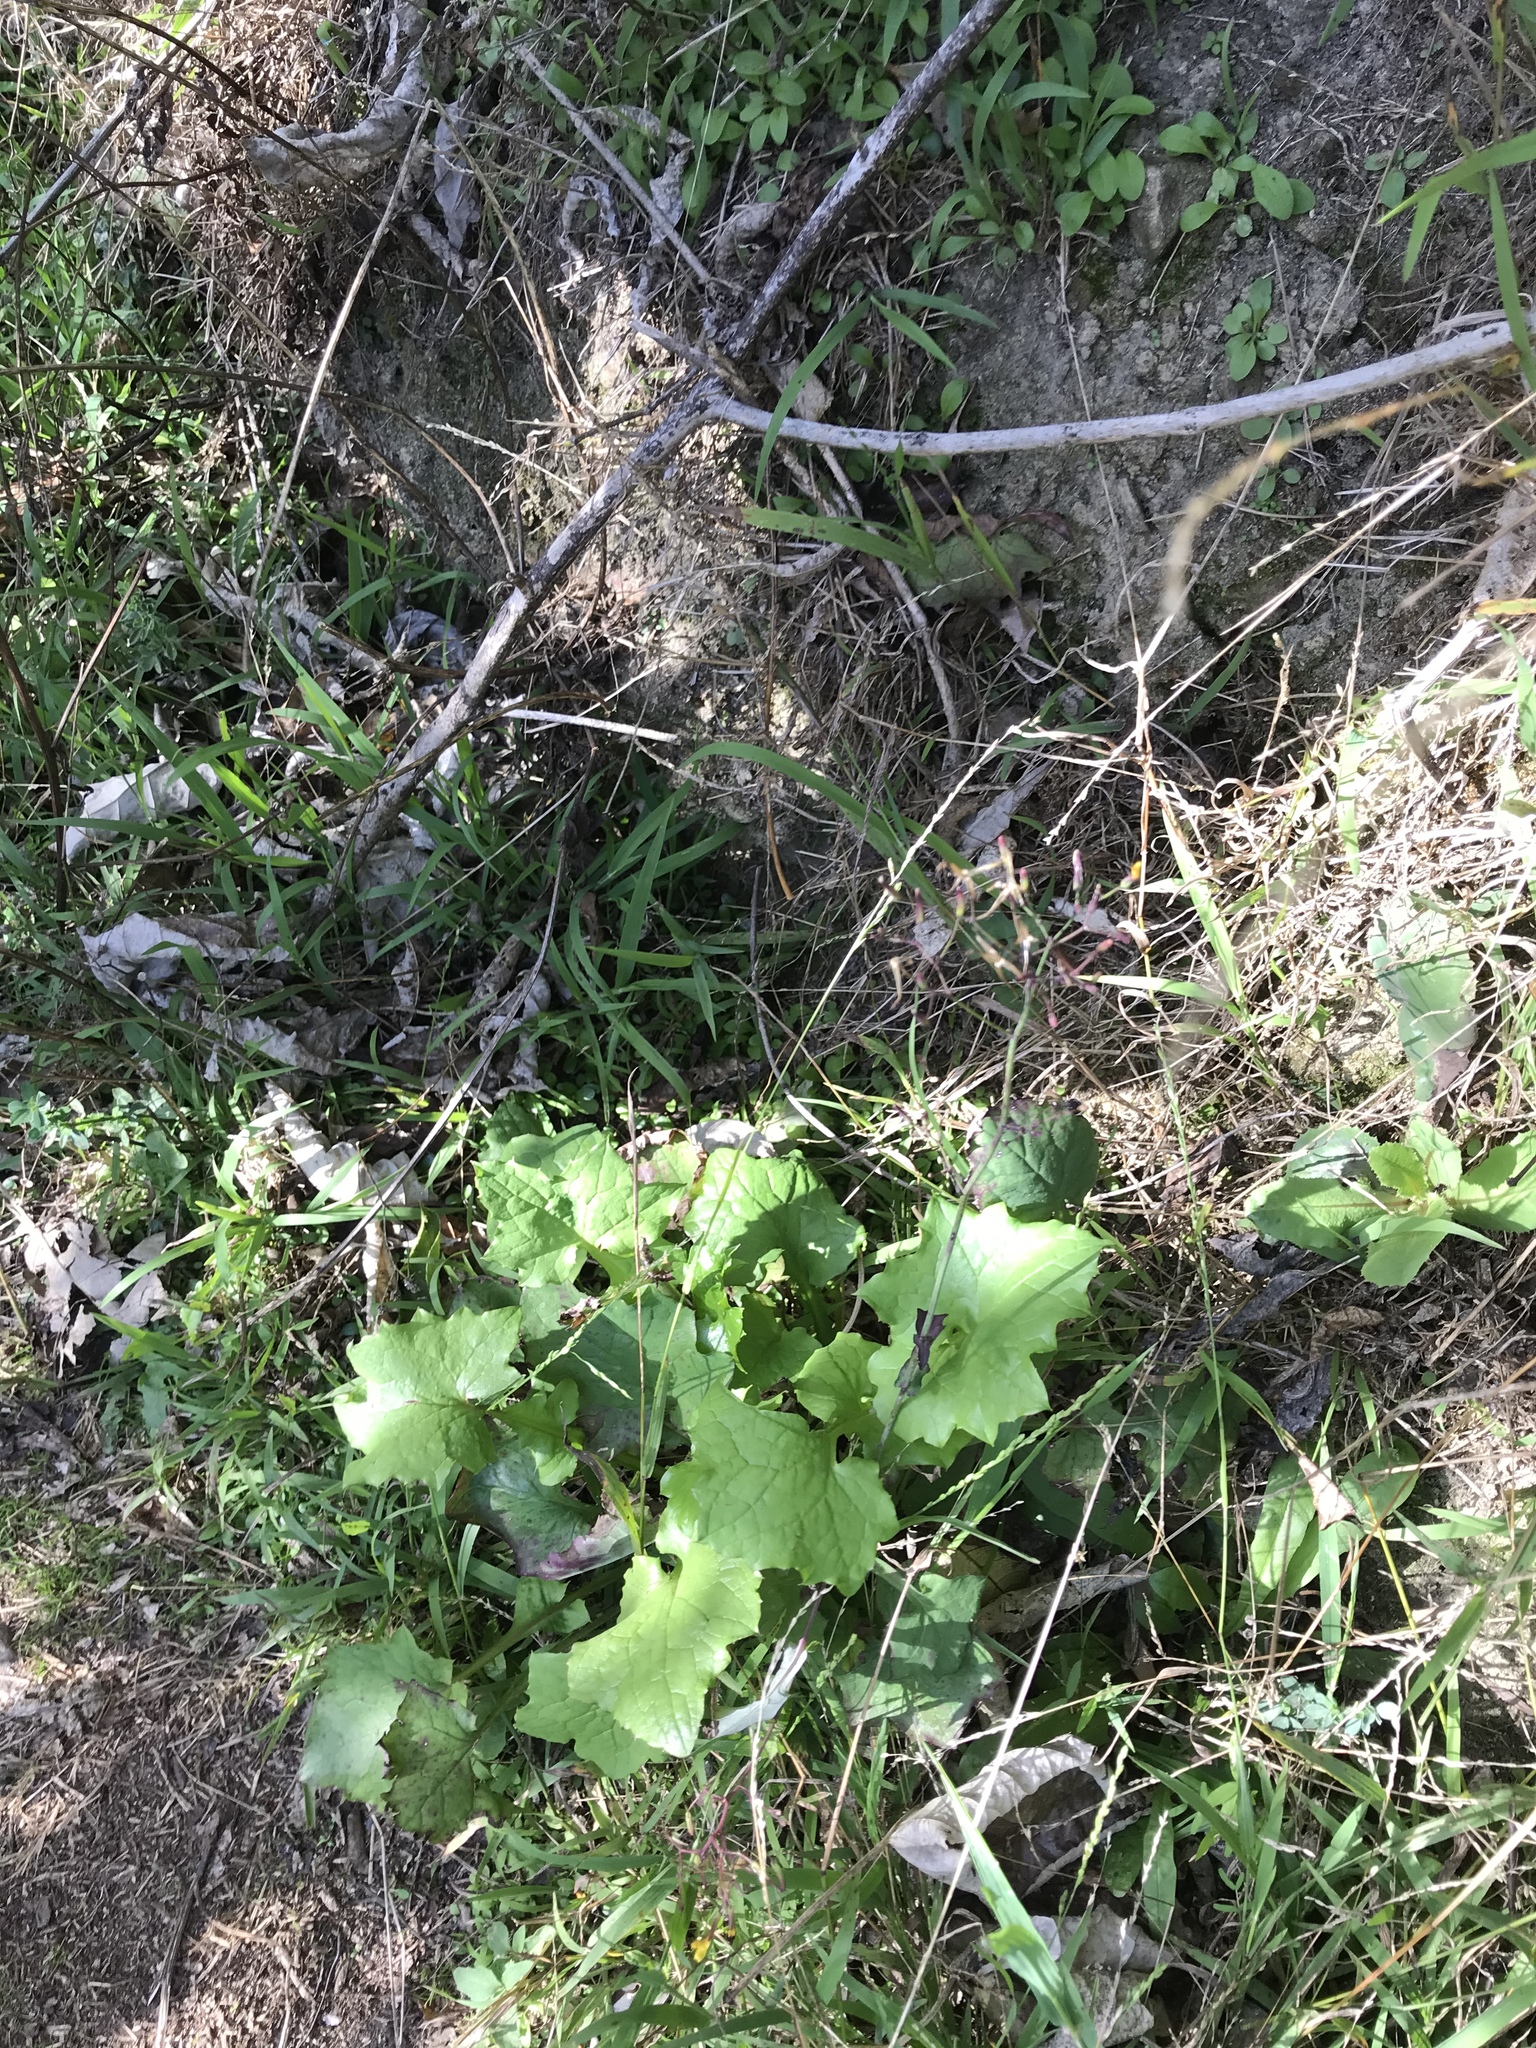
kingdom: Plantae
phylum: Tracheophyta
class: Magnoliopsida
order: Asterales
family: Asteraceae
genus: Mycelis
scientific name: Mycelis muralis
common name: Wall lettuce
